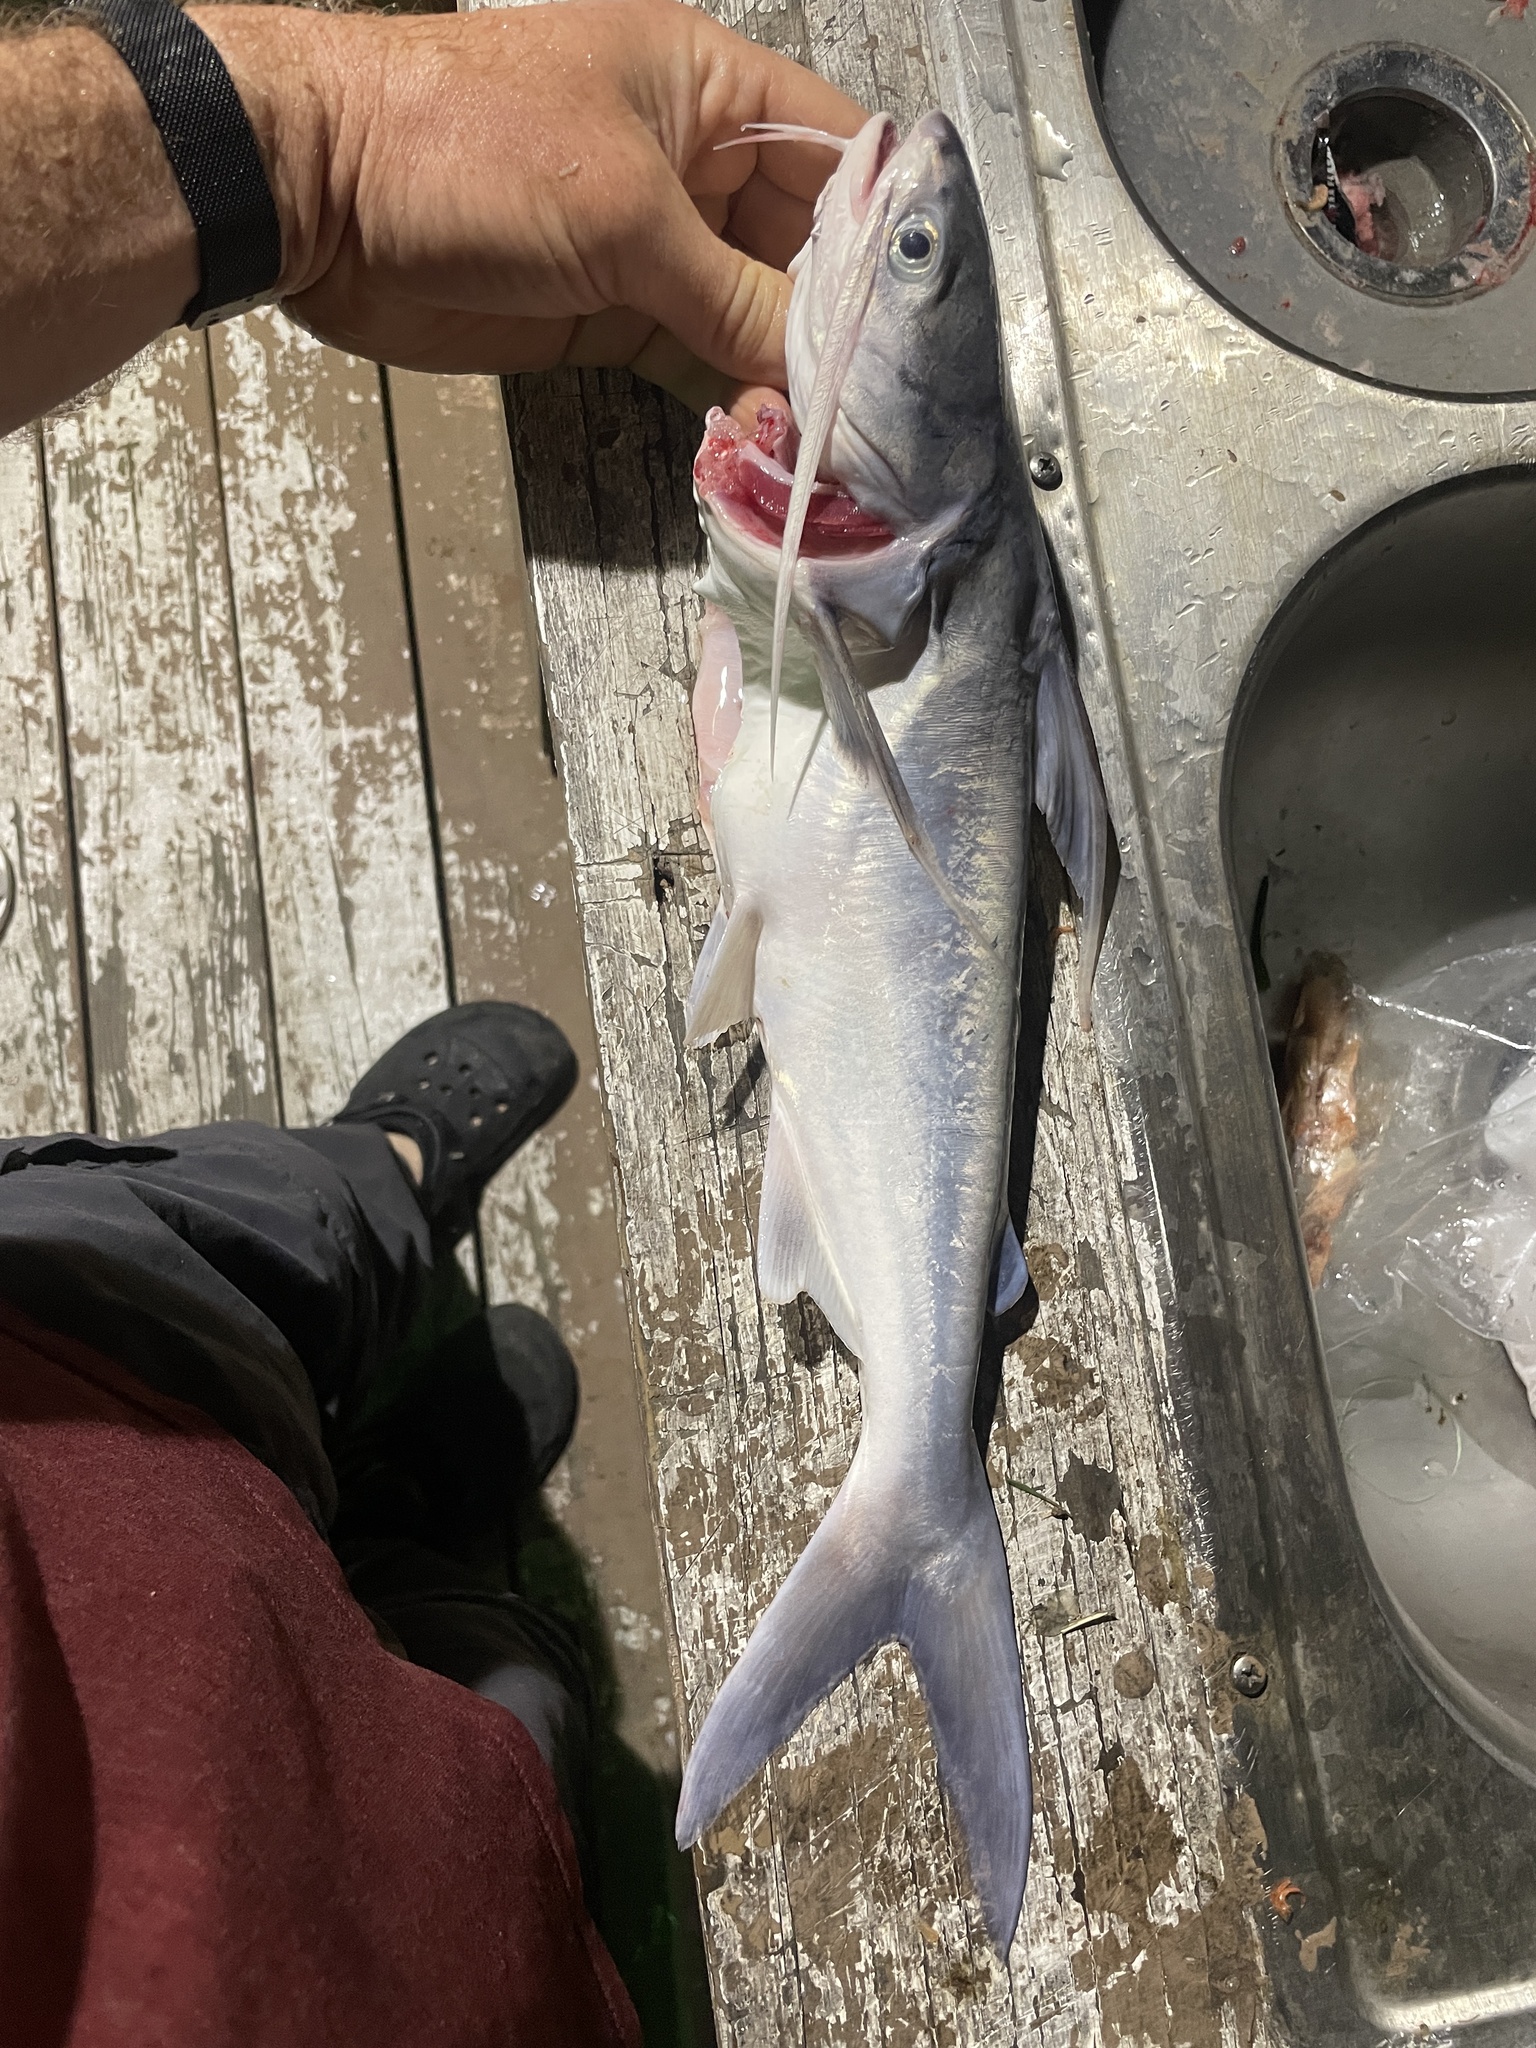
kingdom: Animalia
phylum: Chordata
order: Siluriformes
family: Ariidae
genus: Bagre
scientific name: Bagre marinus
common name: Gafftopsail sea catfish
